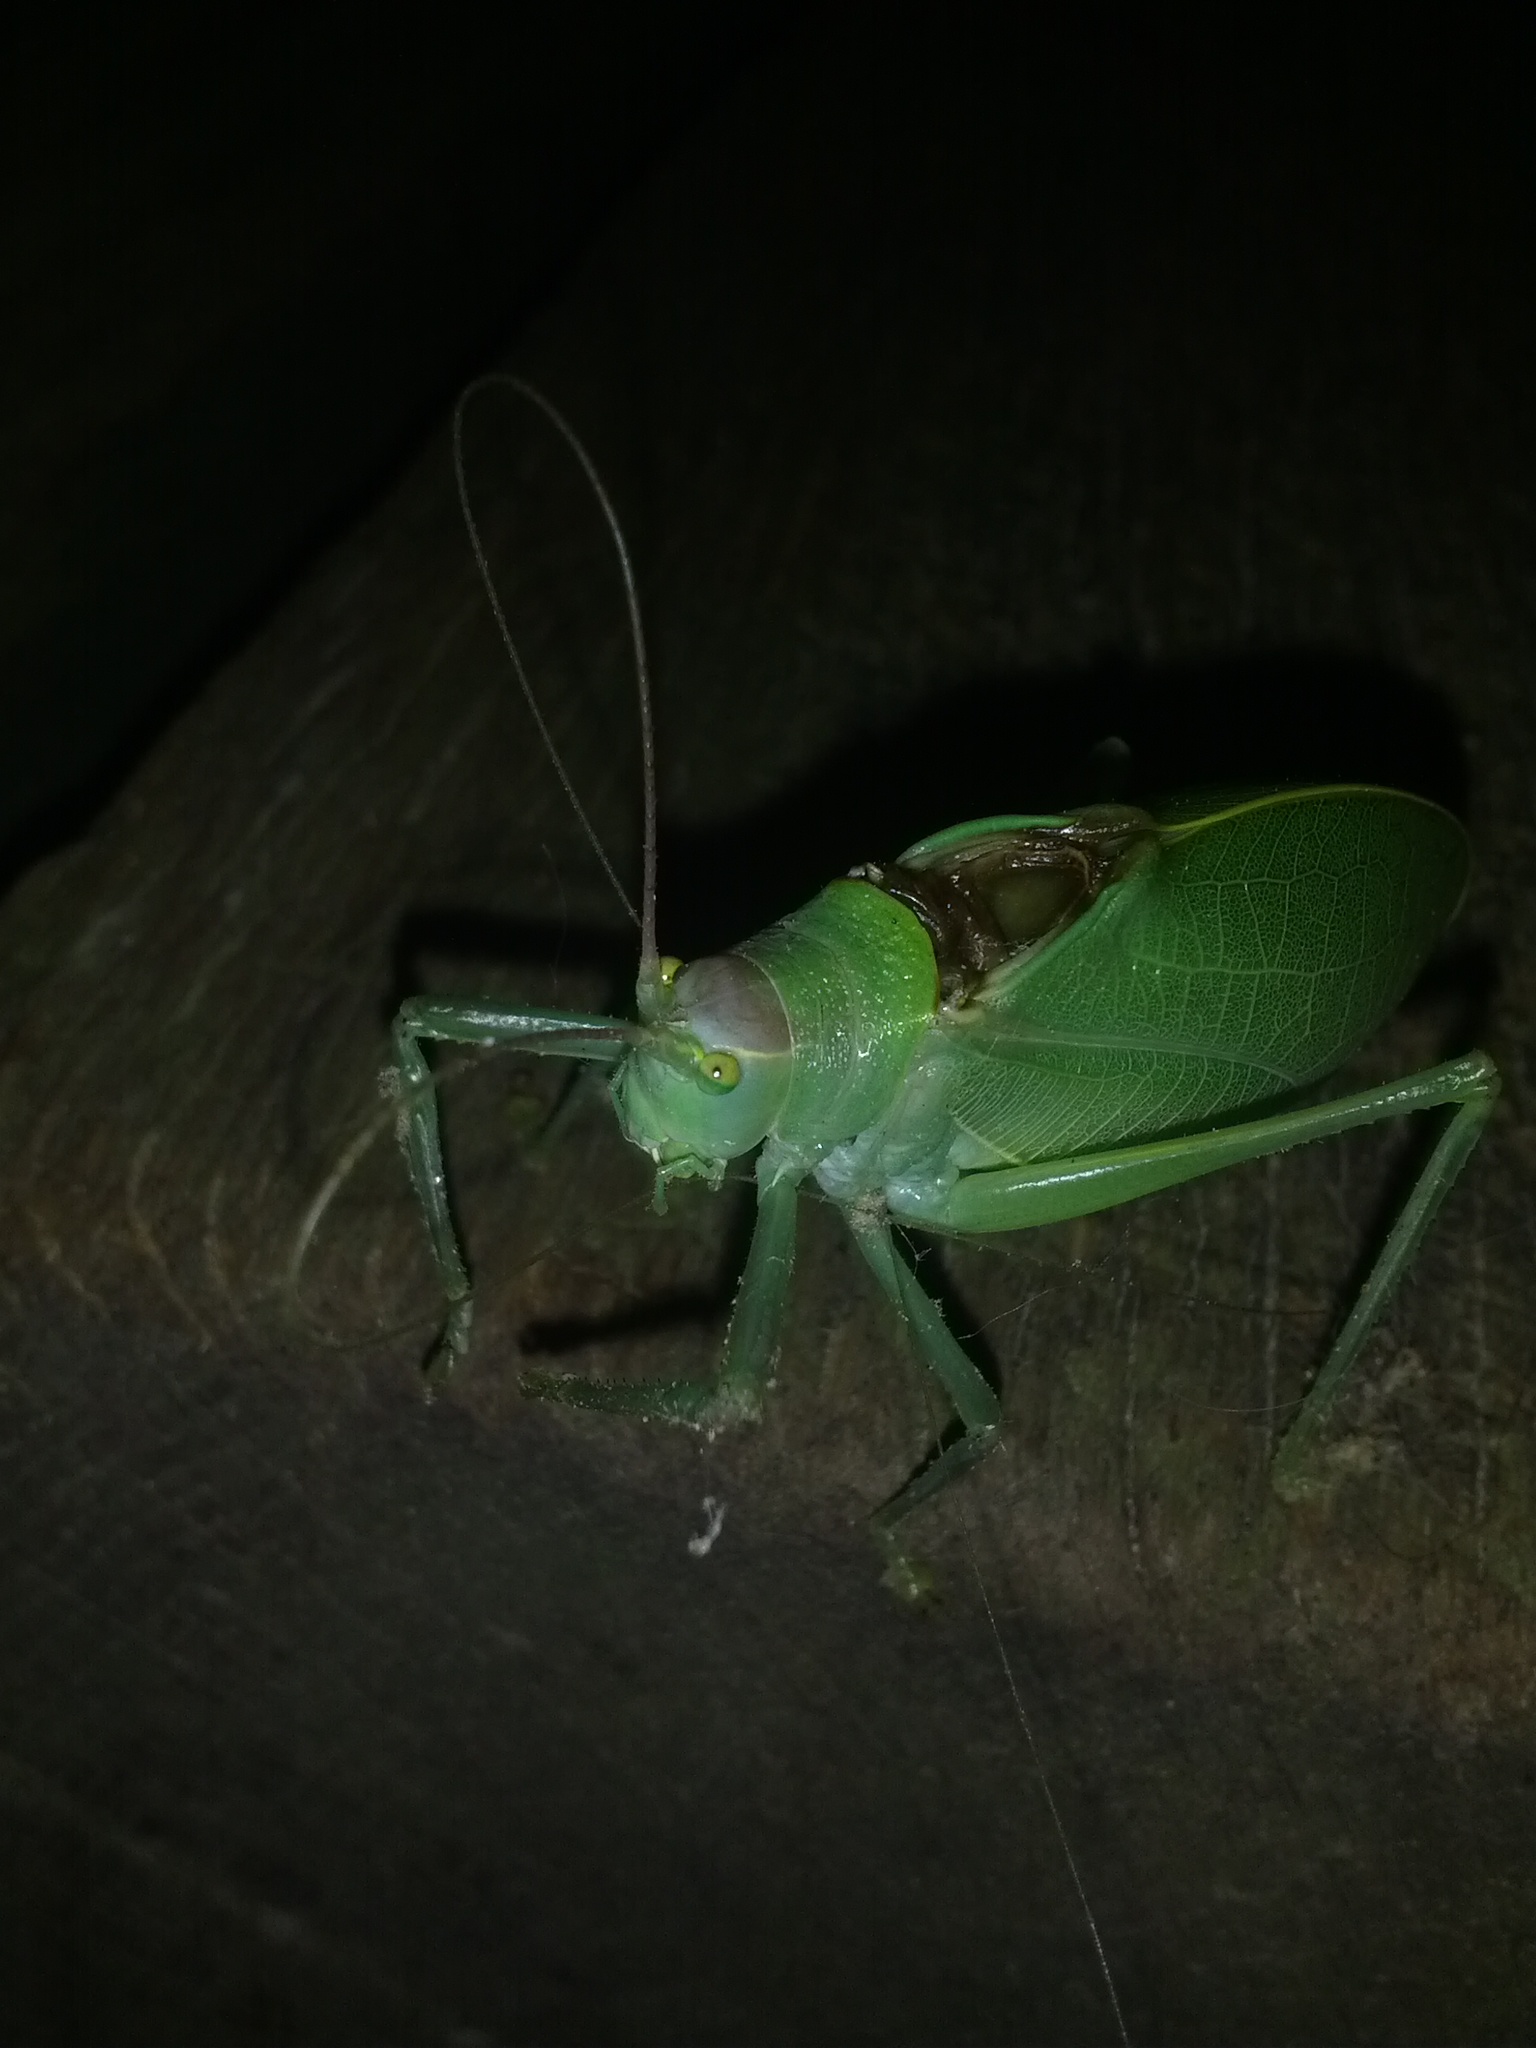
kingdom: Animalia
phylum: Arthropoda
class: Insecta
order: Orthoptera
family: Tettigoniidae
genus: Pterophylla
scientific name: Pterophylla camellifolia
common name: Common true katydid
